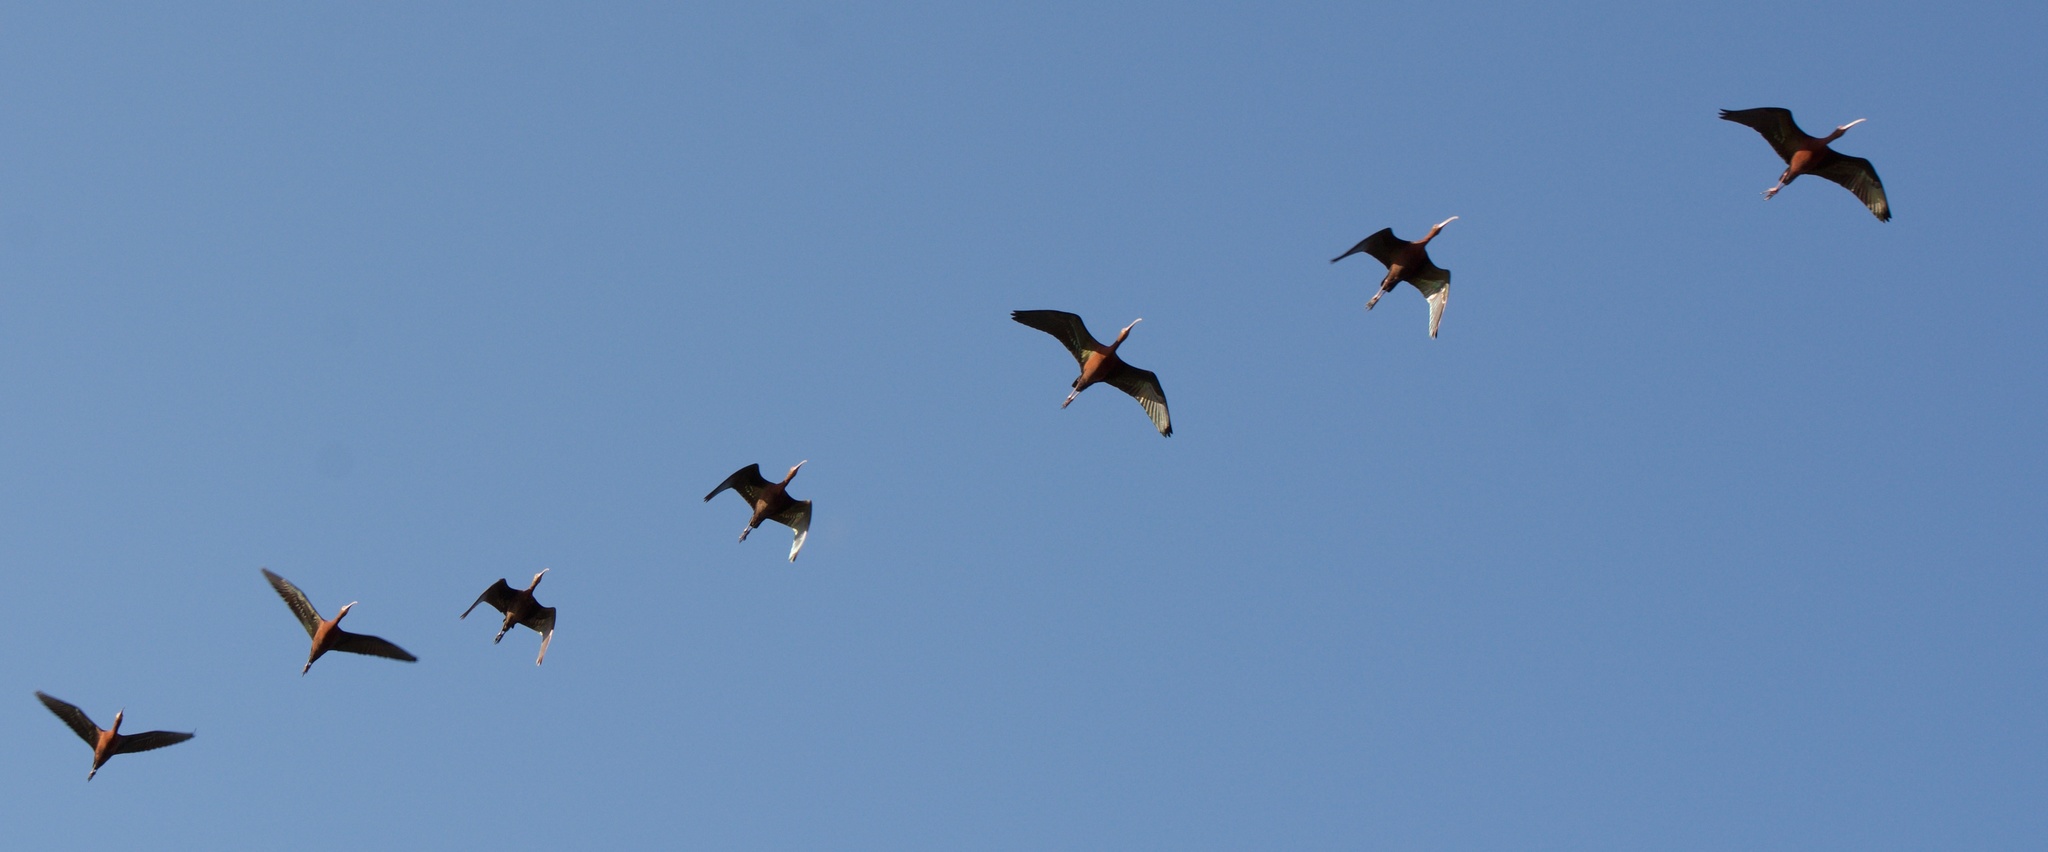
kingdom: Animalia
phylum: Chordata
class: Aves
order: Pelecaniformes
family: Threskiornithidae
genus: Plegadis
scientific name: Plegadis chihi
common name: White-faced ibis
